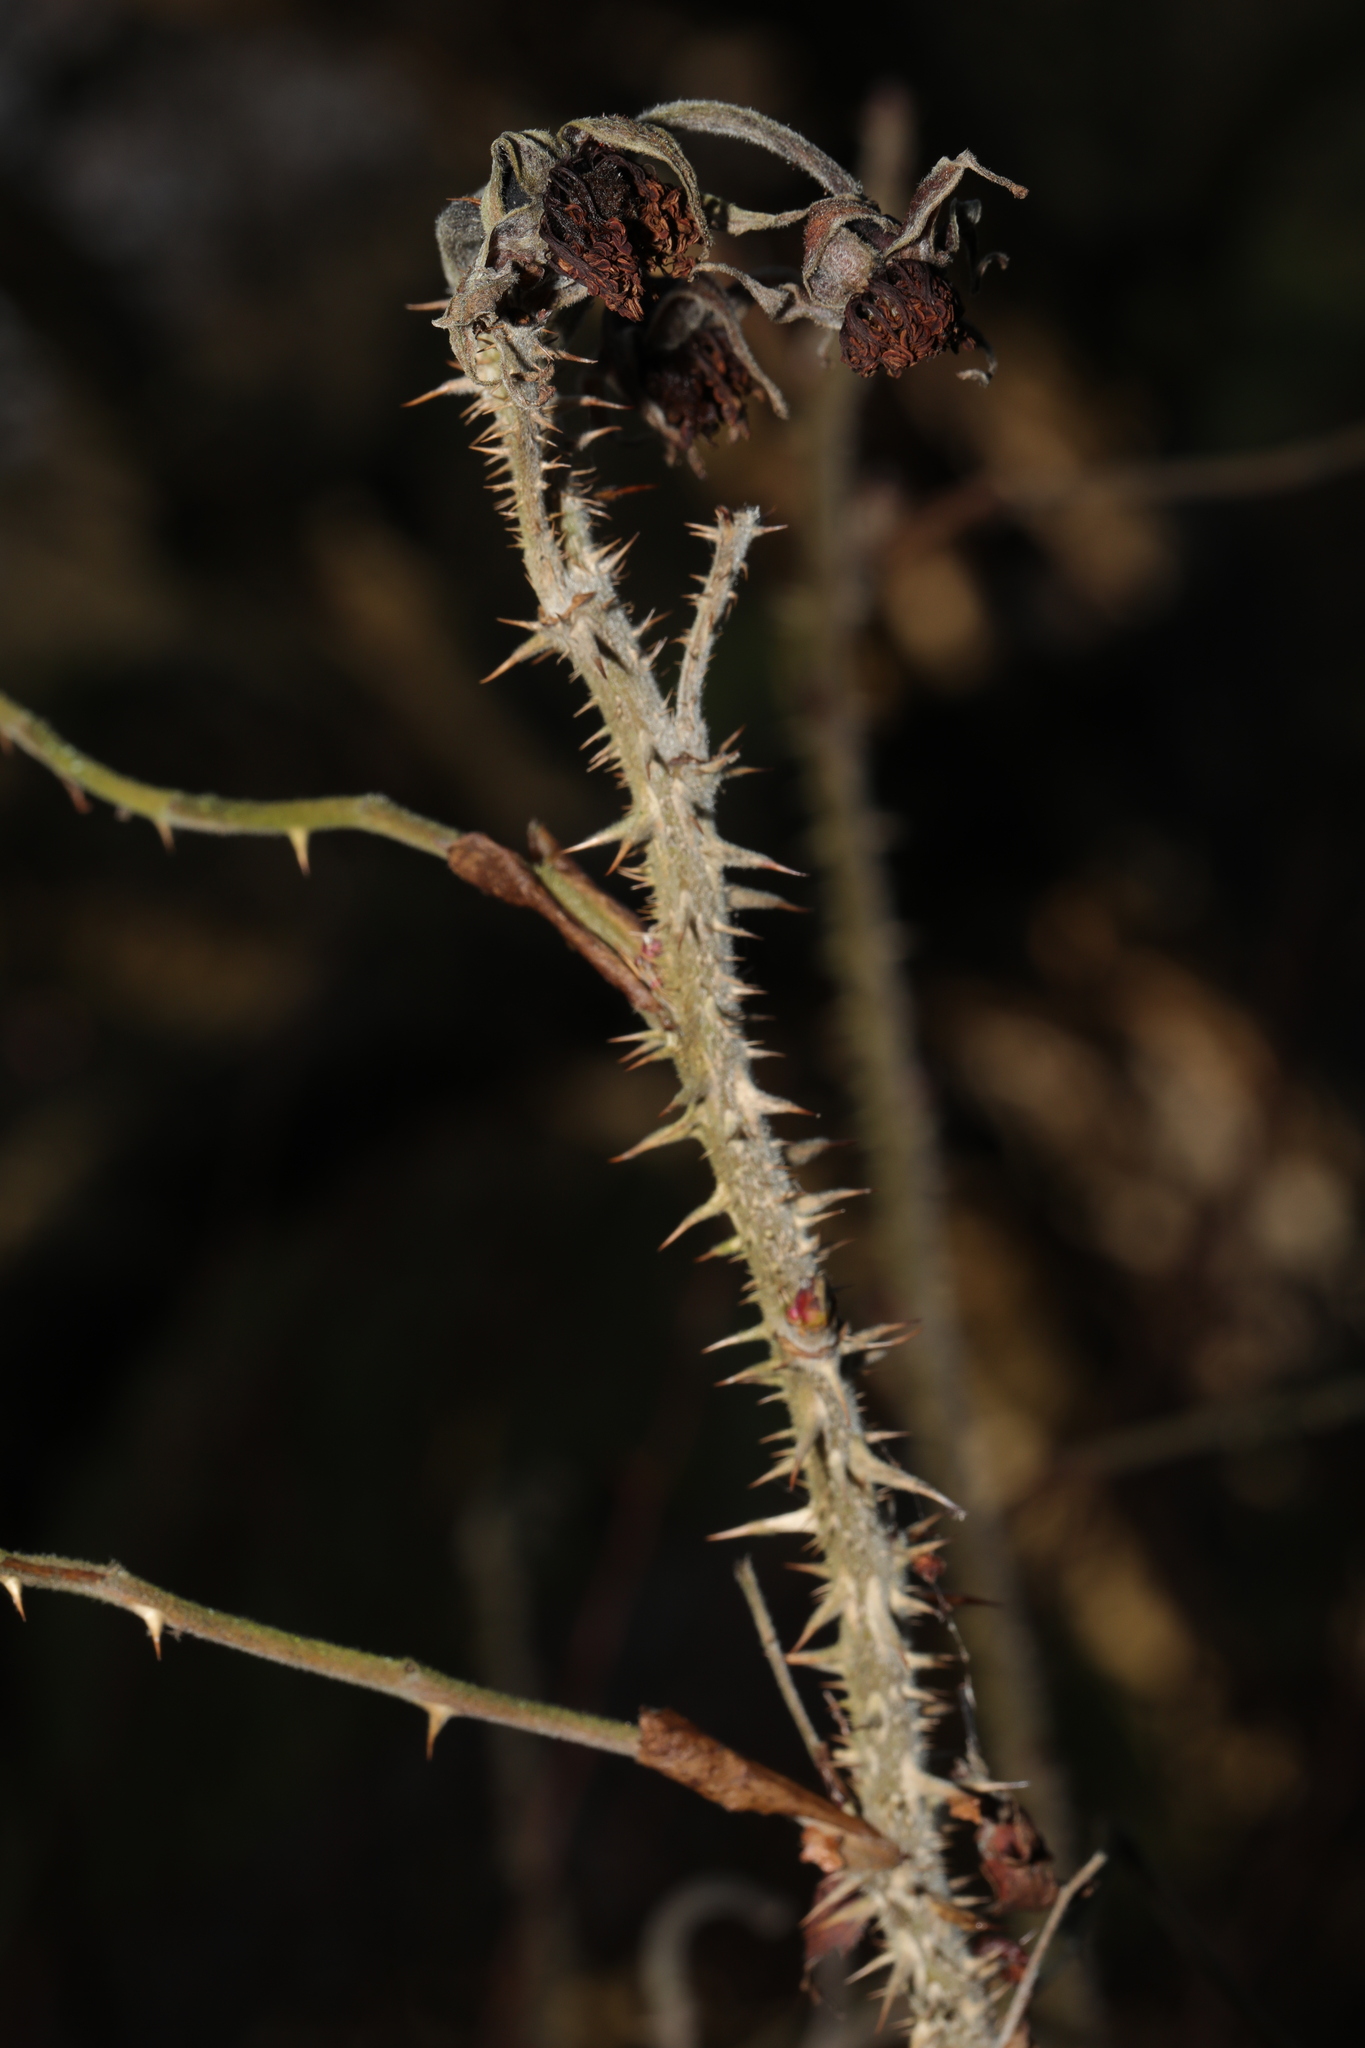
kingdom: Plantae
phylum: Tracheophyta
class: Magnoliopsida
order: Rosales
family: Rosaceae
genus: Rosa
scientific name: Rosa rugosa
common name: Japanese rose
